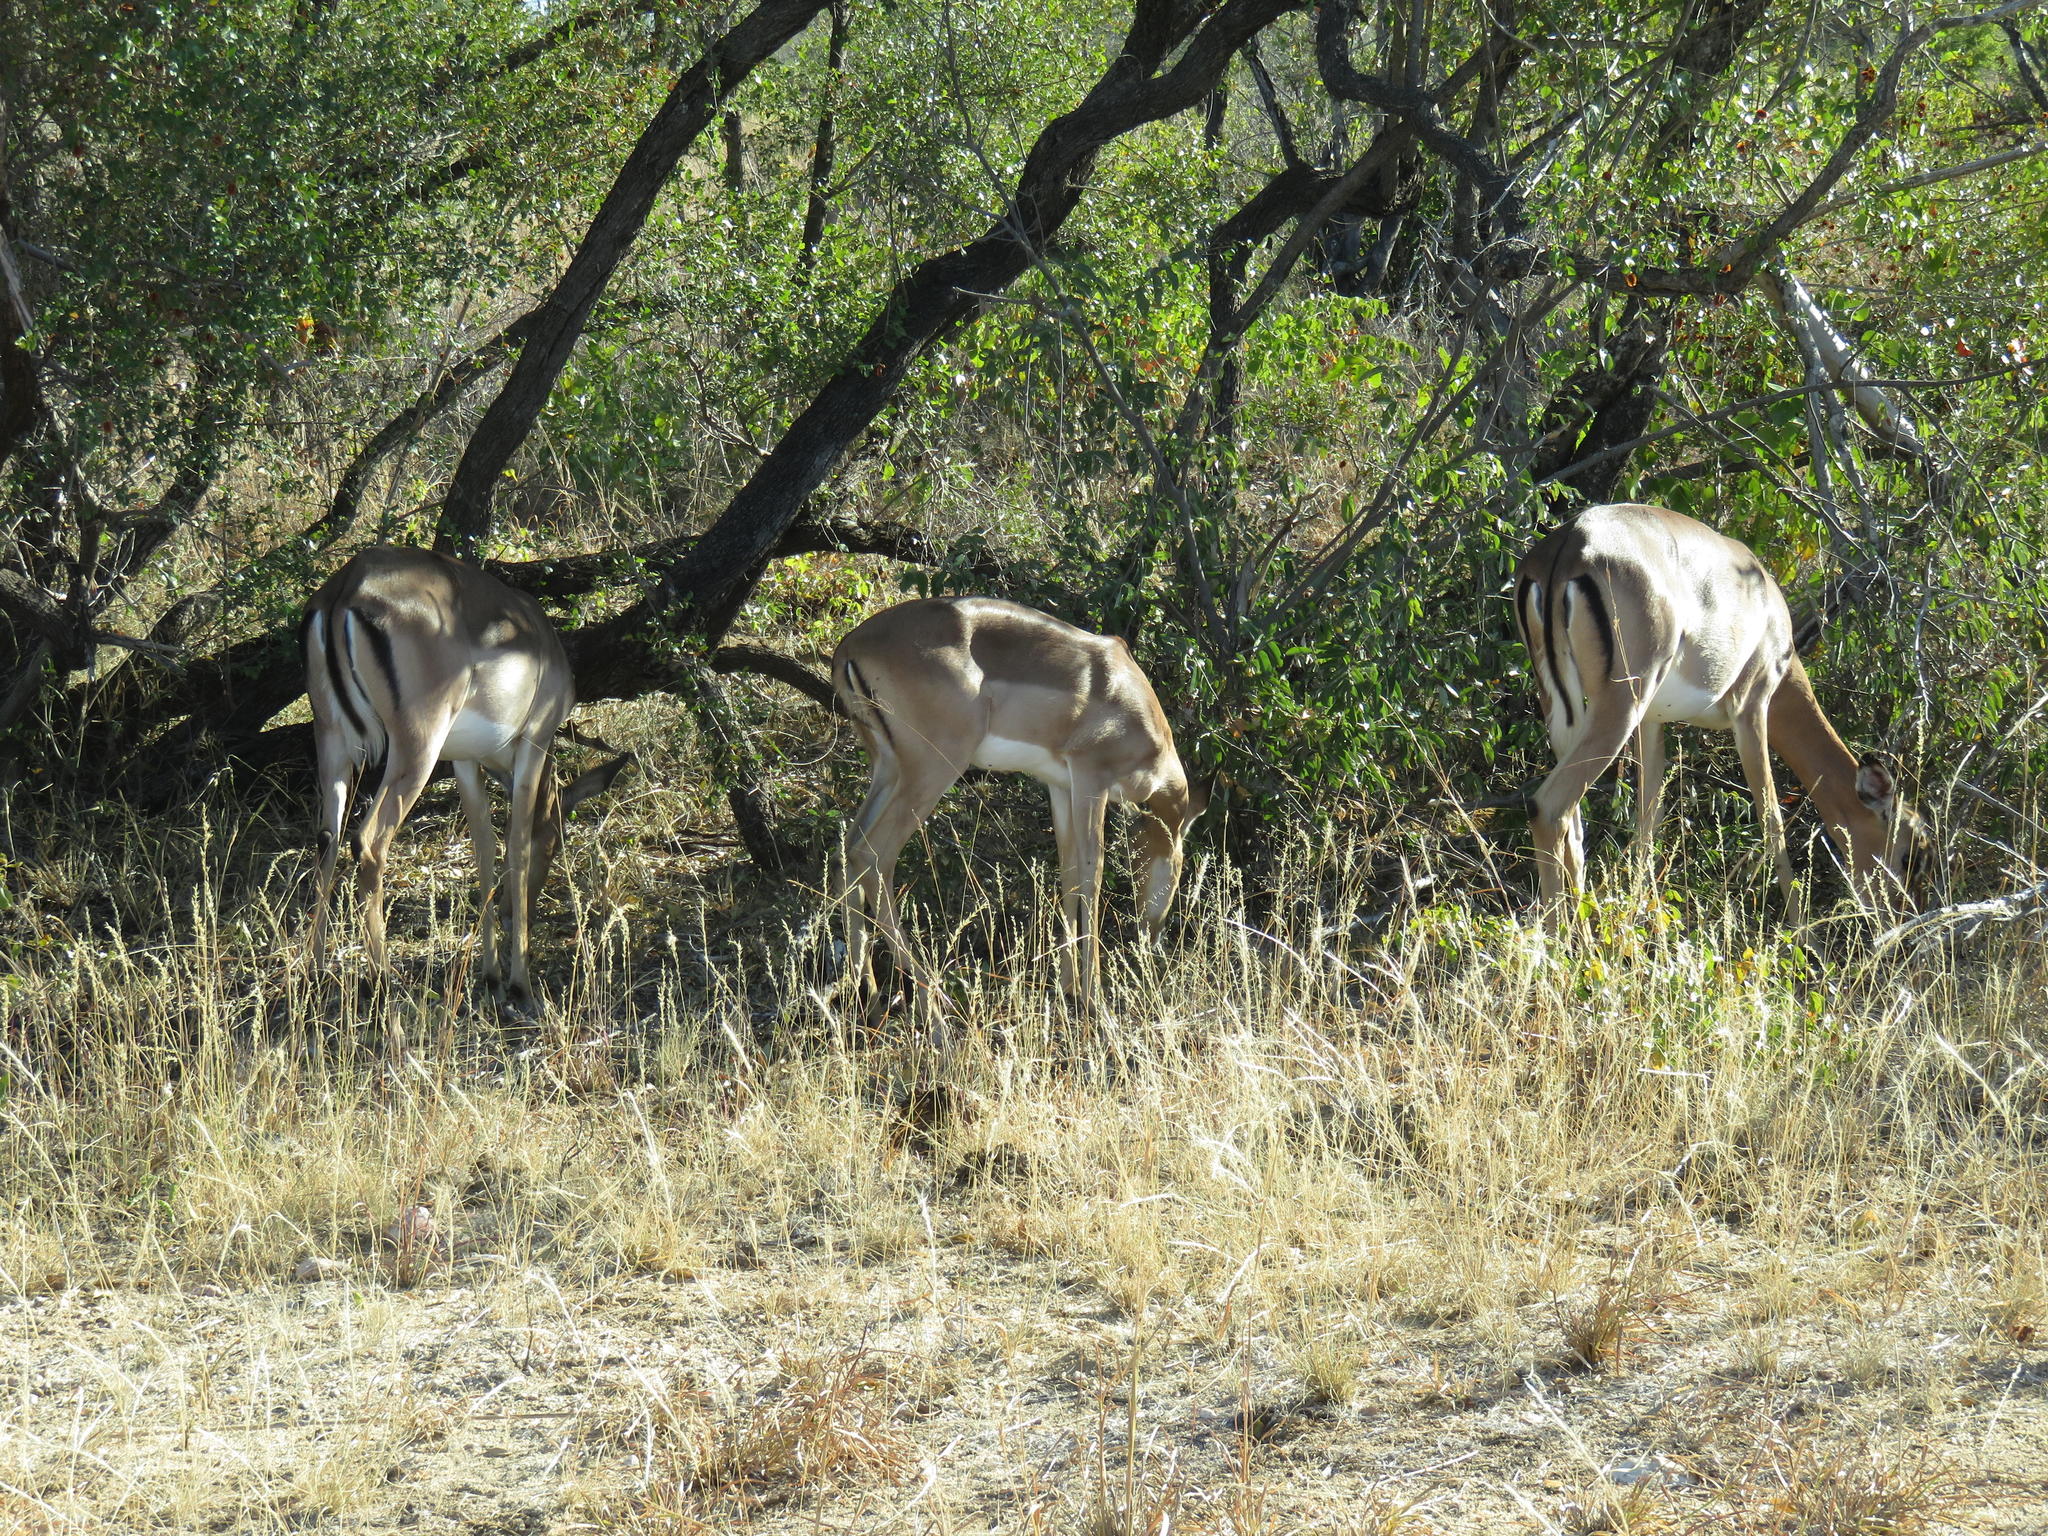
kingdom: Animalia
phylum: Chordata
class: Mammalia
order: Artiodactyla
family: Bovidae
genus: Aepyceros
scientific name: Aepyceros melampus
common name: Impala
